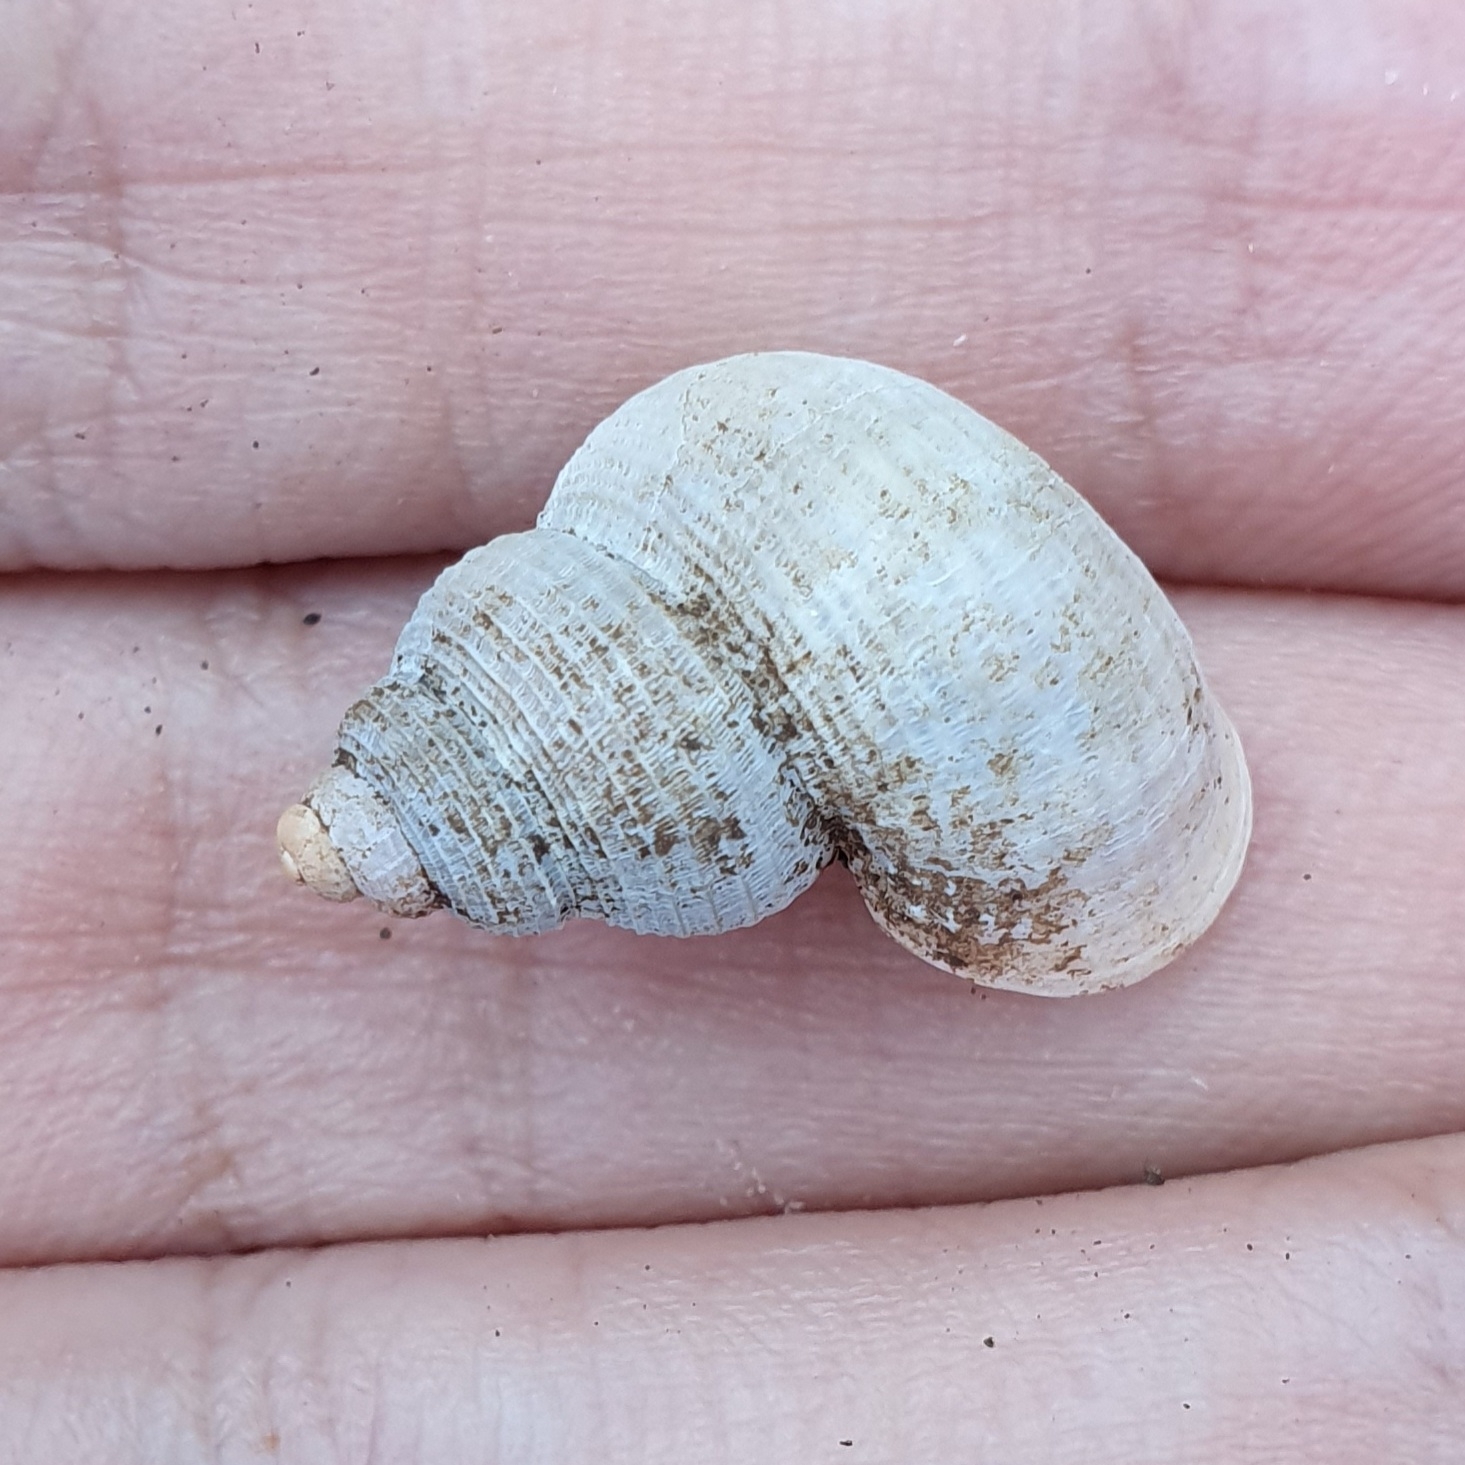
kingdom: Animalia
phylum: Mollusca
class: Gastropoda
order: Littorinimorpha
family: Pomatiidae
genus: Tudorella
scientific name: Tudorella sulcata
